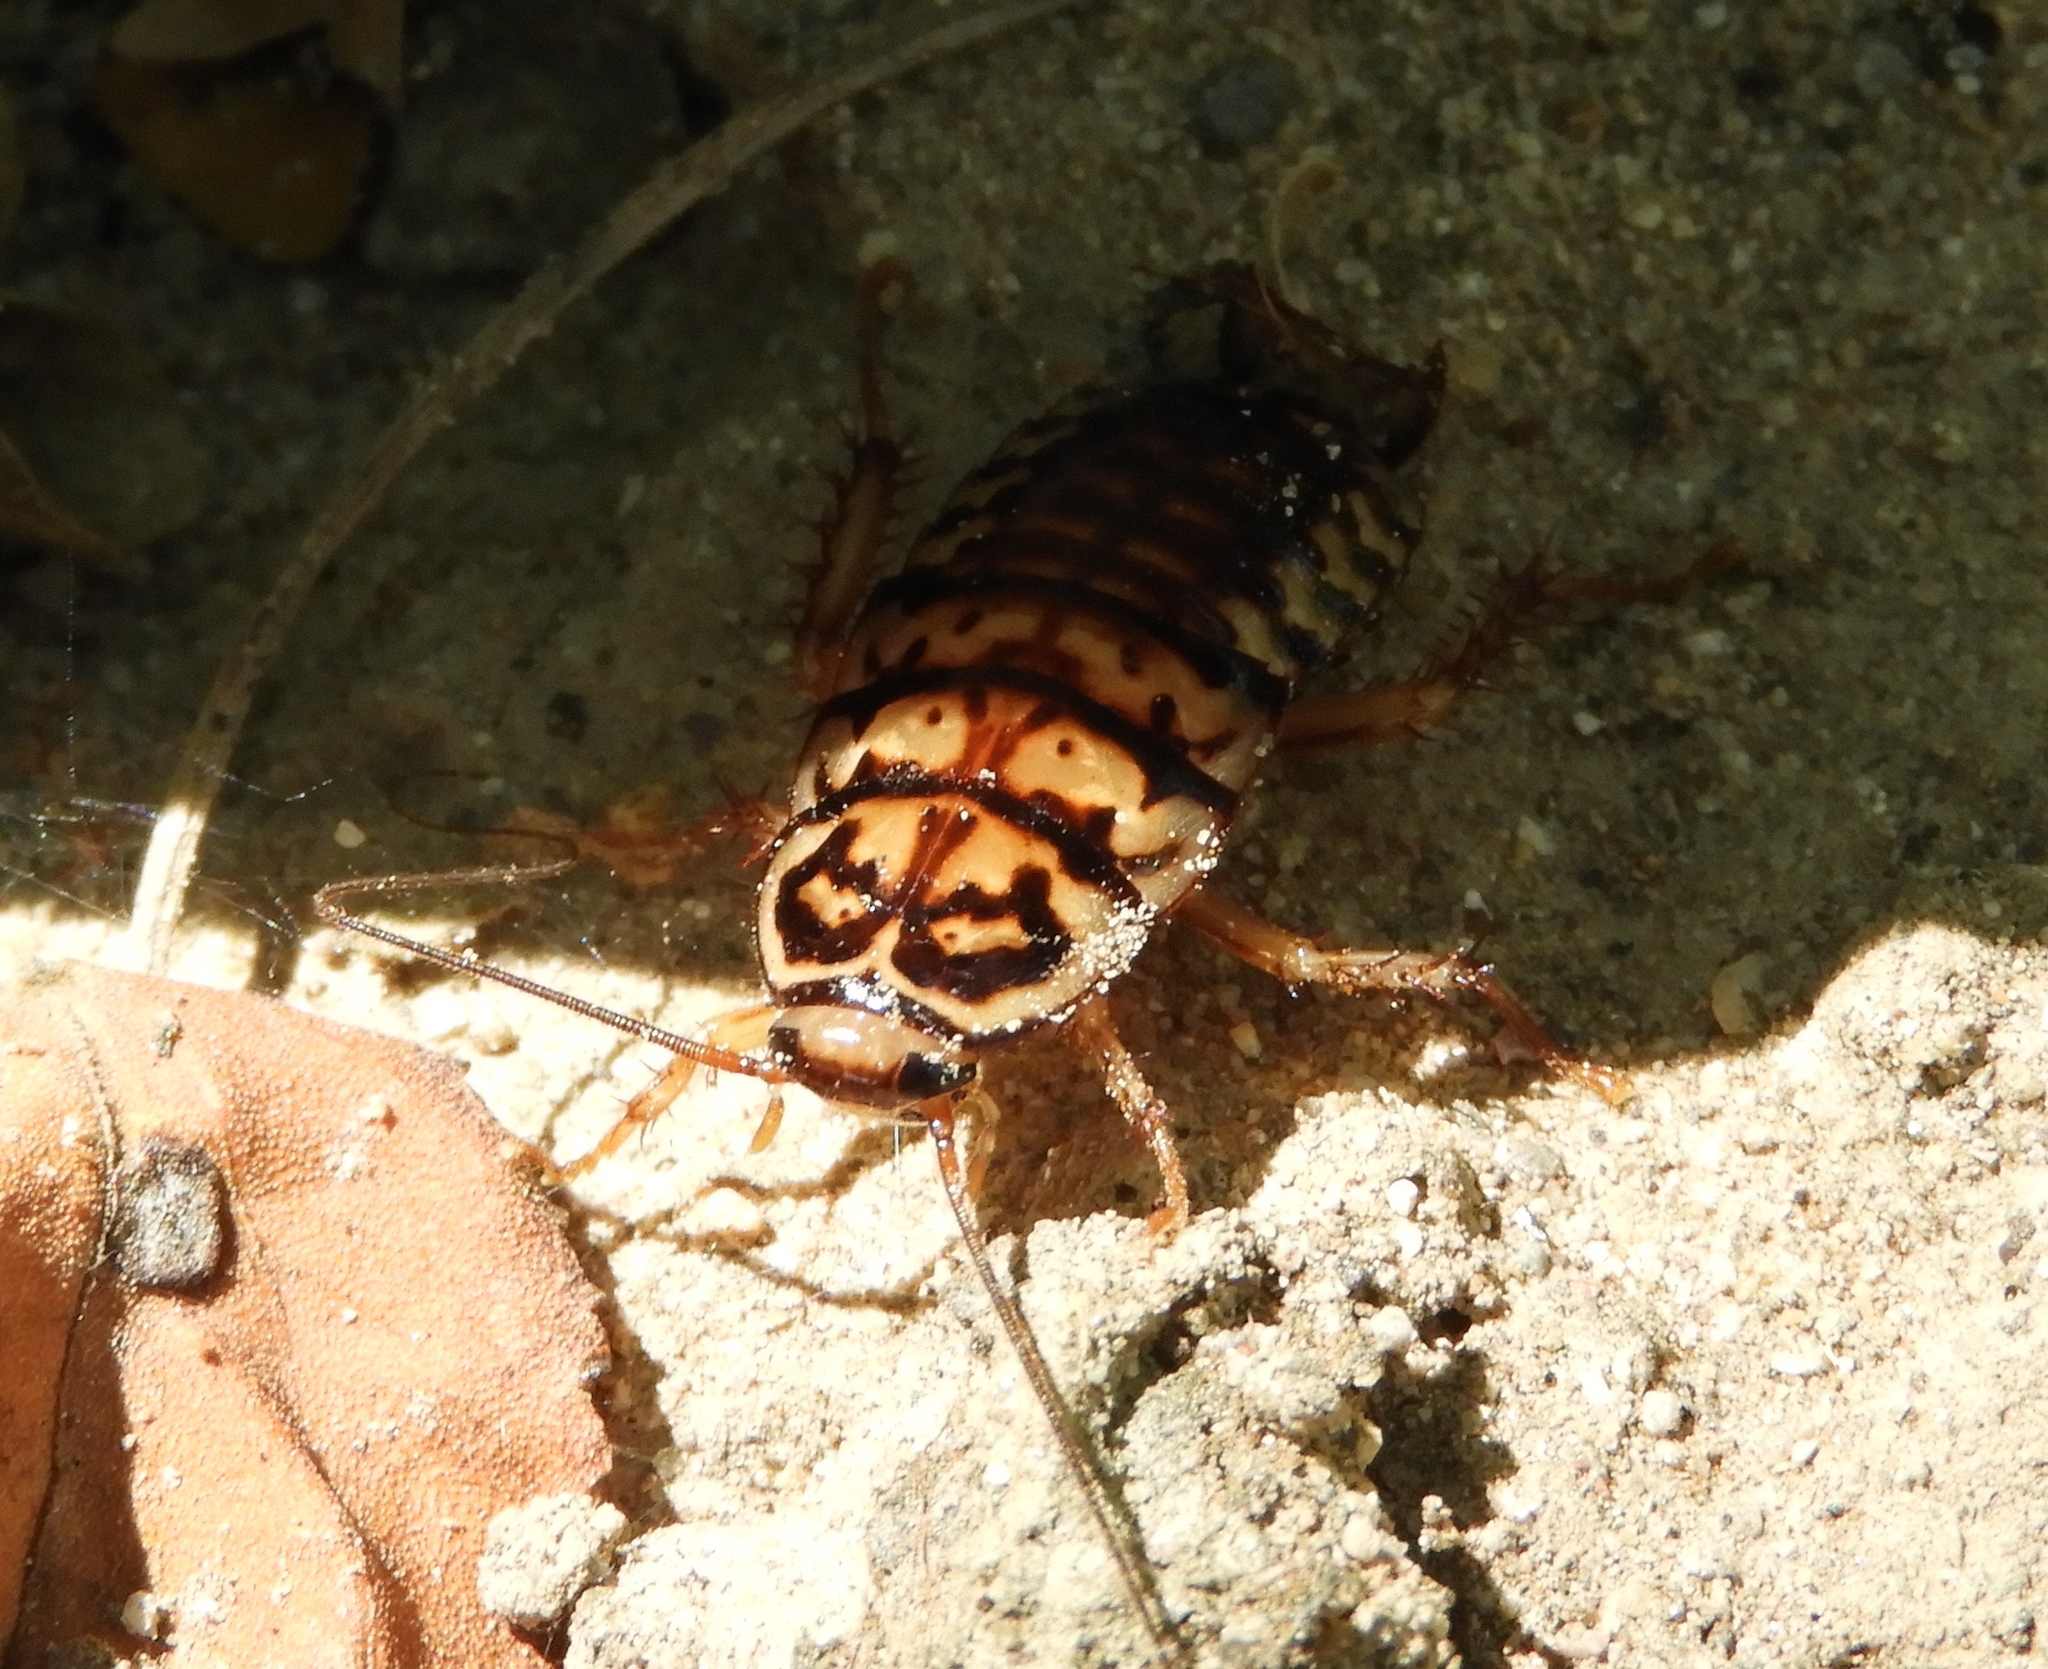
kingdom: Animalia
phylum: Arthropoda
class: Insecta
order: Blattodea
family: Blattidae
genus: Neostylopyga
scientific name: Neostylopyga rhombifolia
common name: Harlequin cockroach
